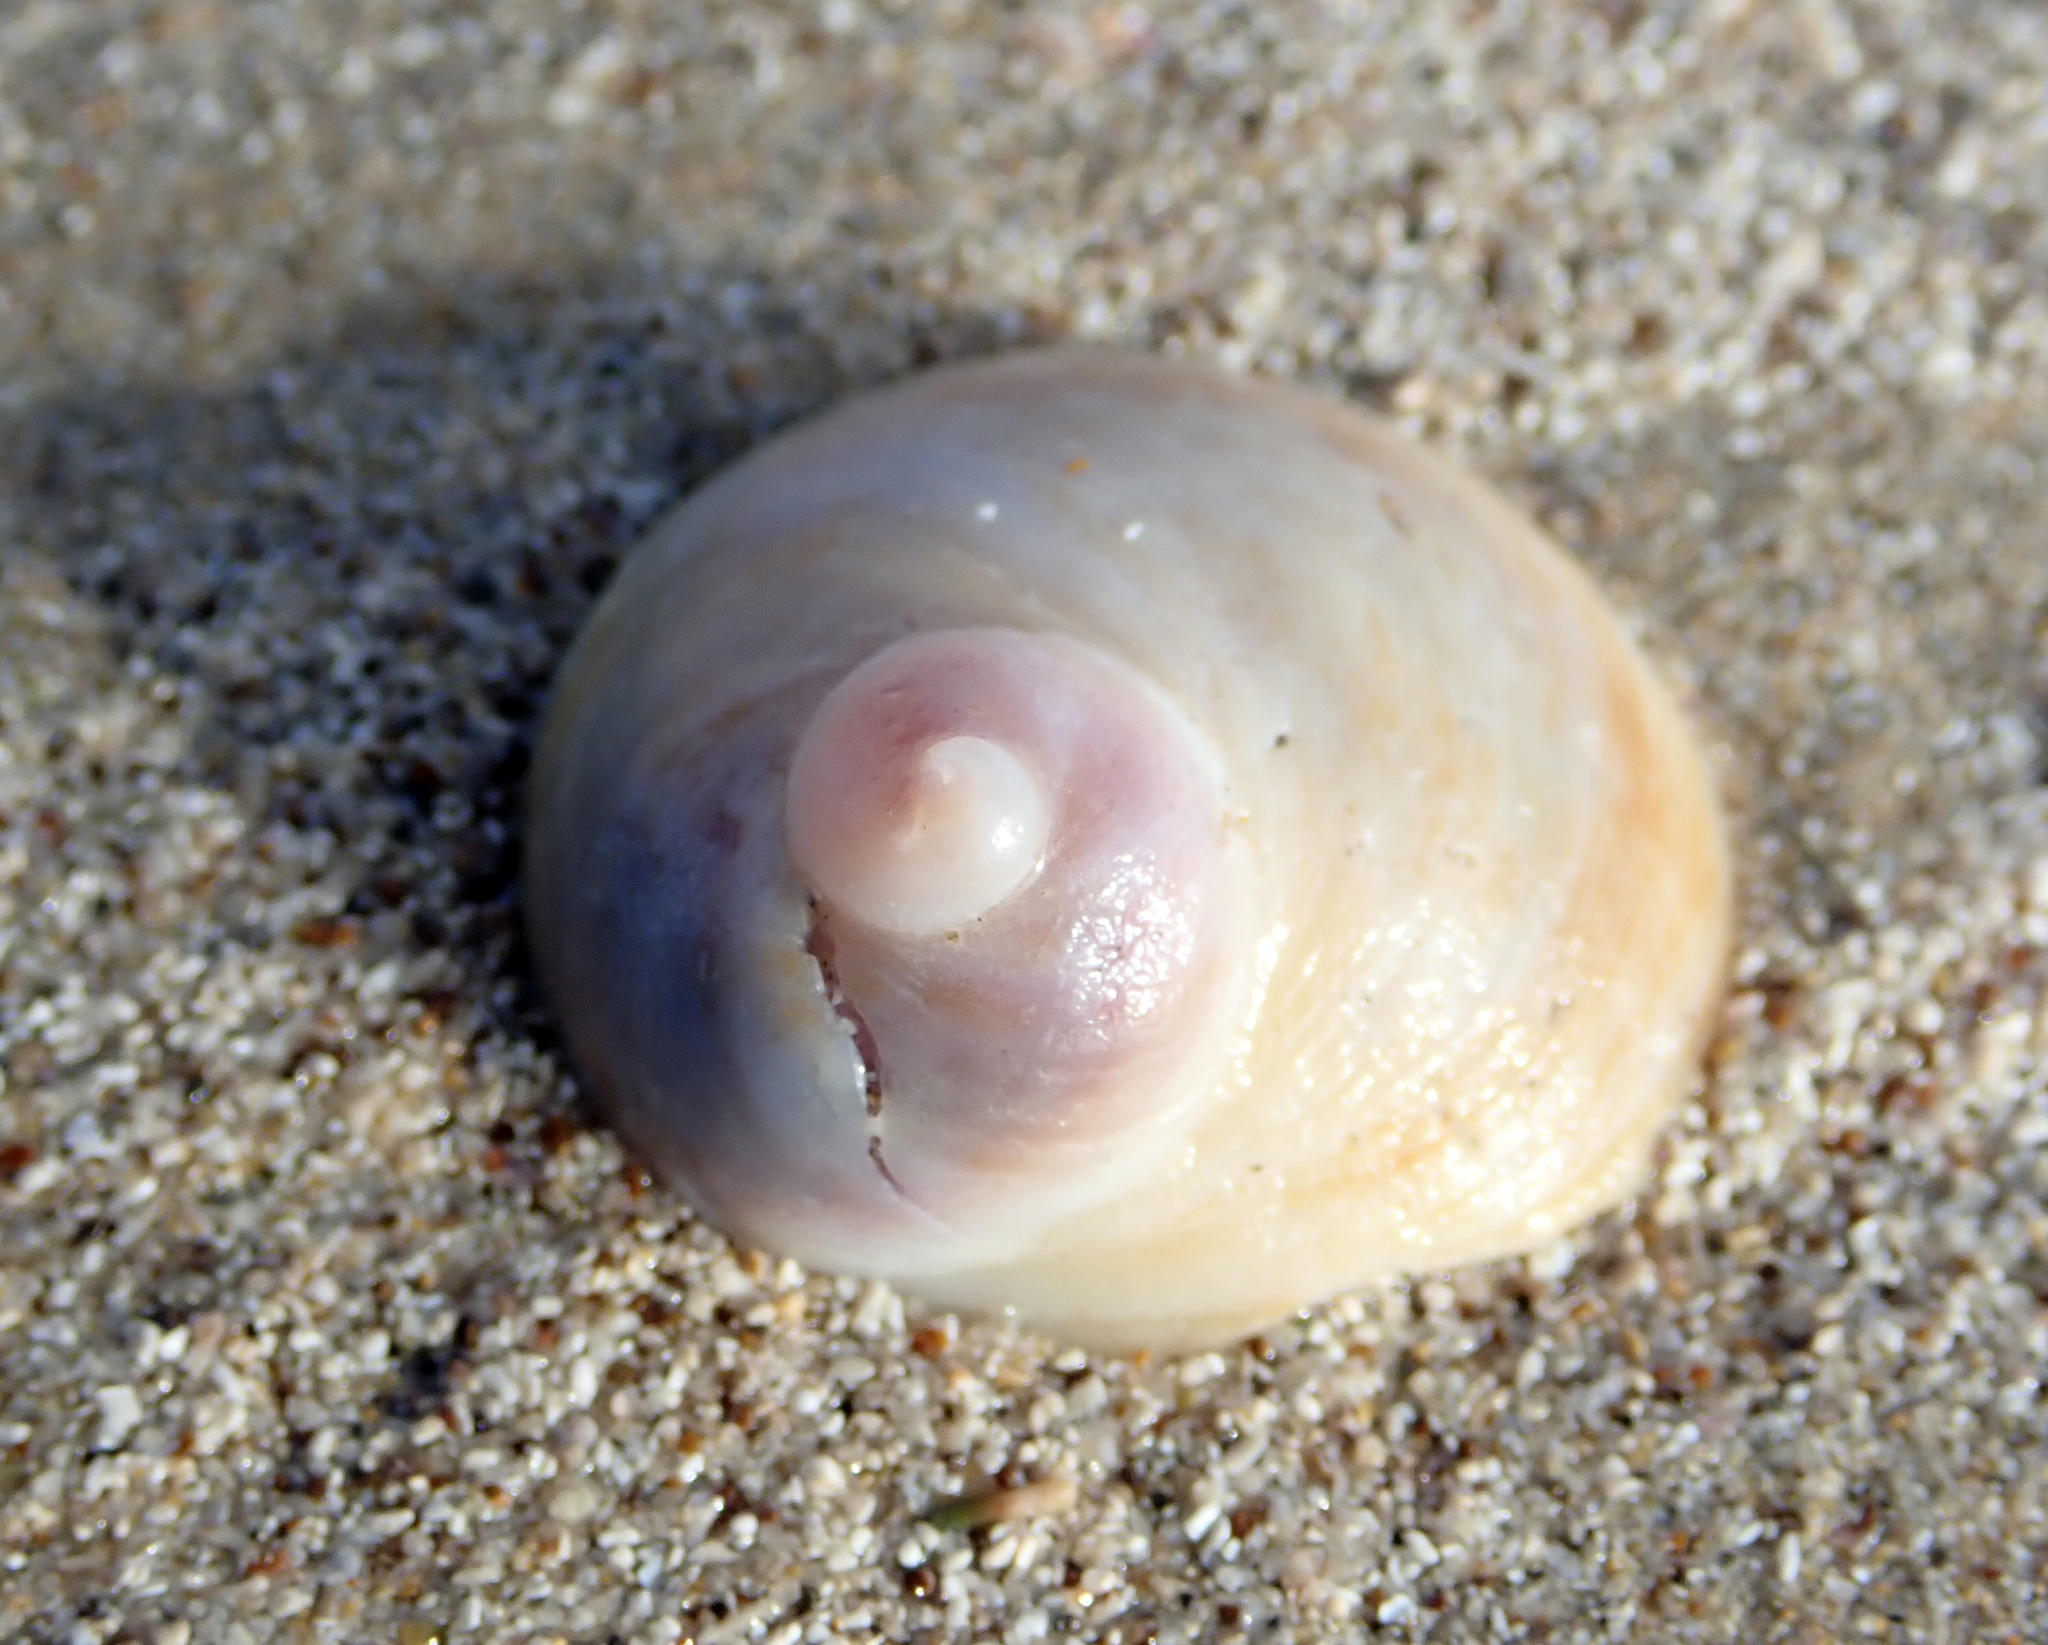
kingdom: Animalia
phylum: Mollusca
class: Gastropoda
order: Littorinimorpha
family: Calyptraeidae
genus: Sigapatella
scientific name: Sigapatella novaezelandiae
